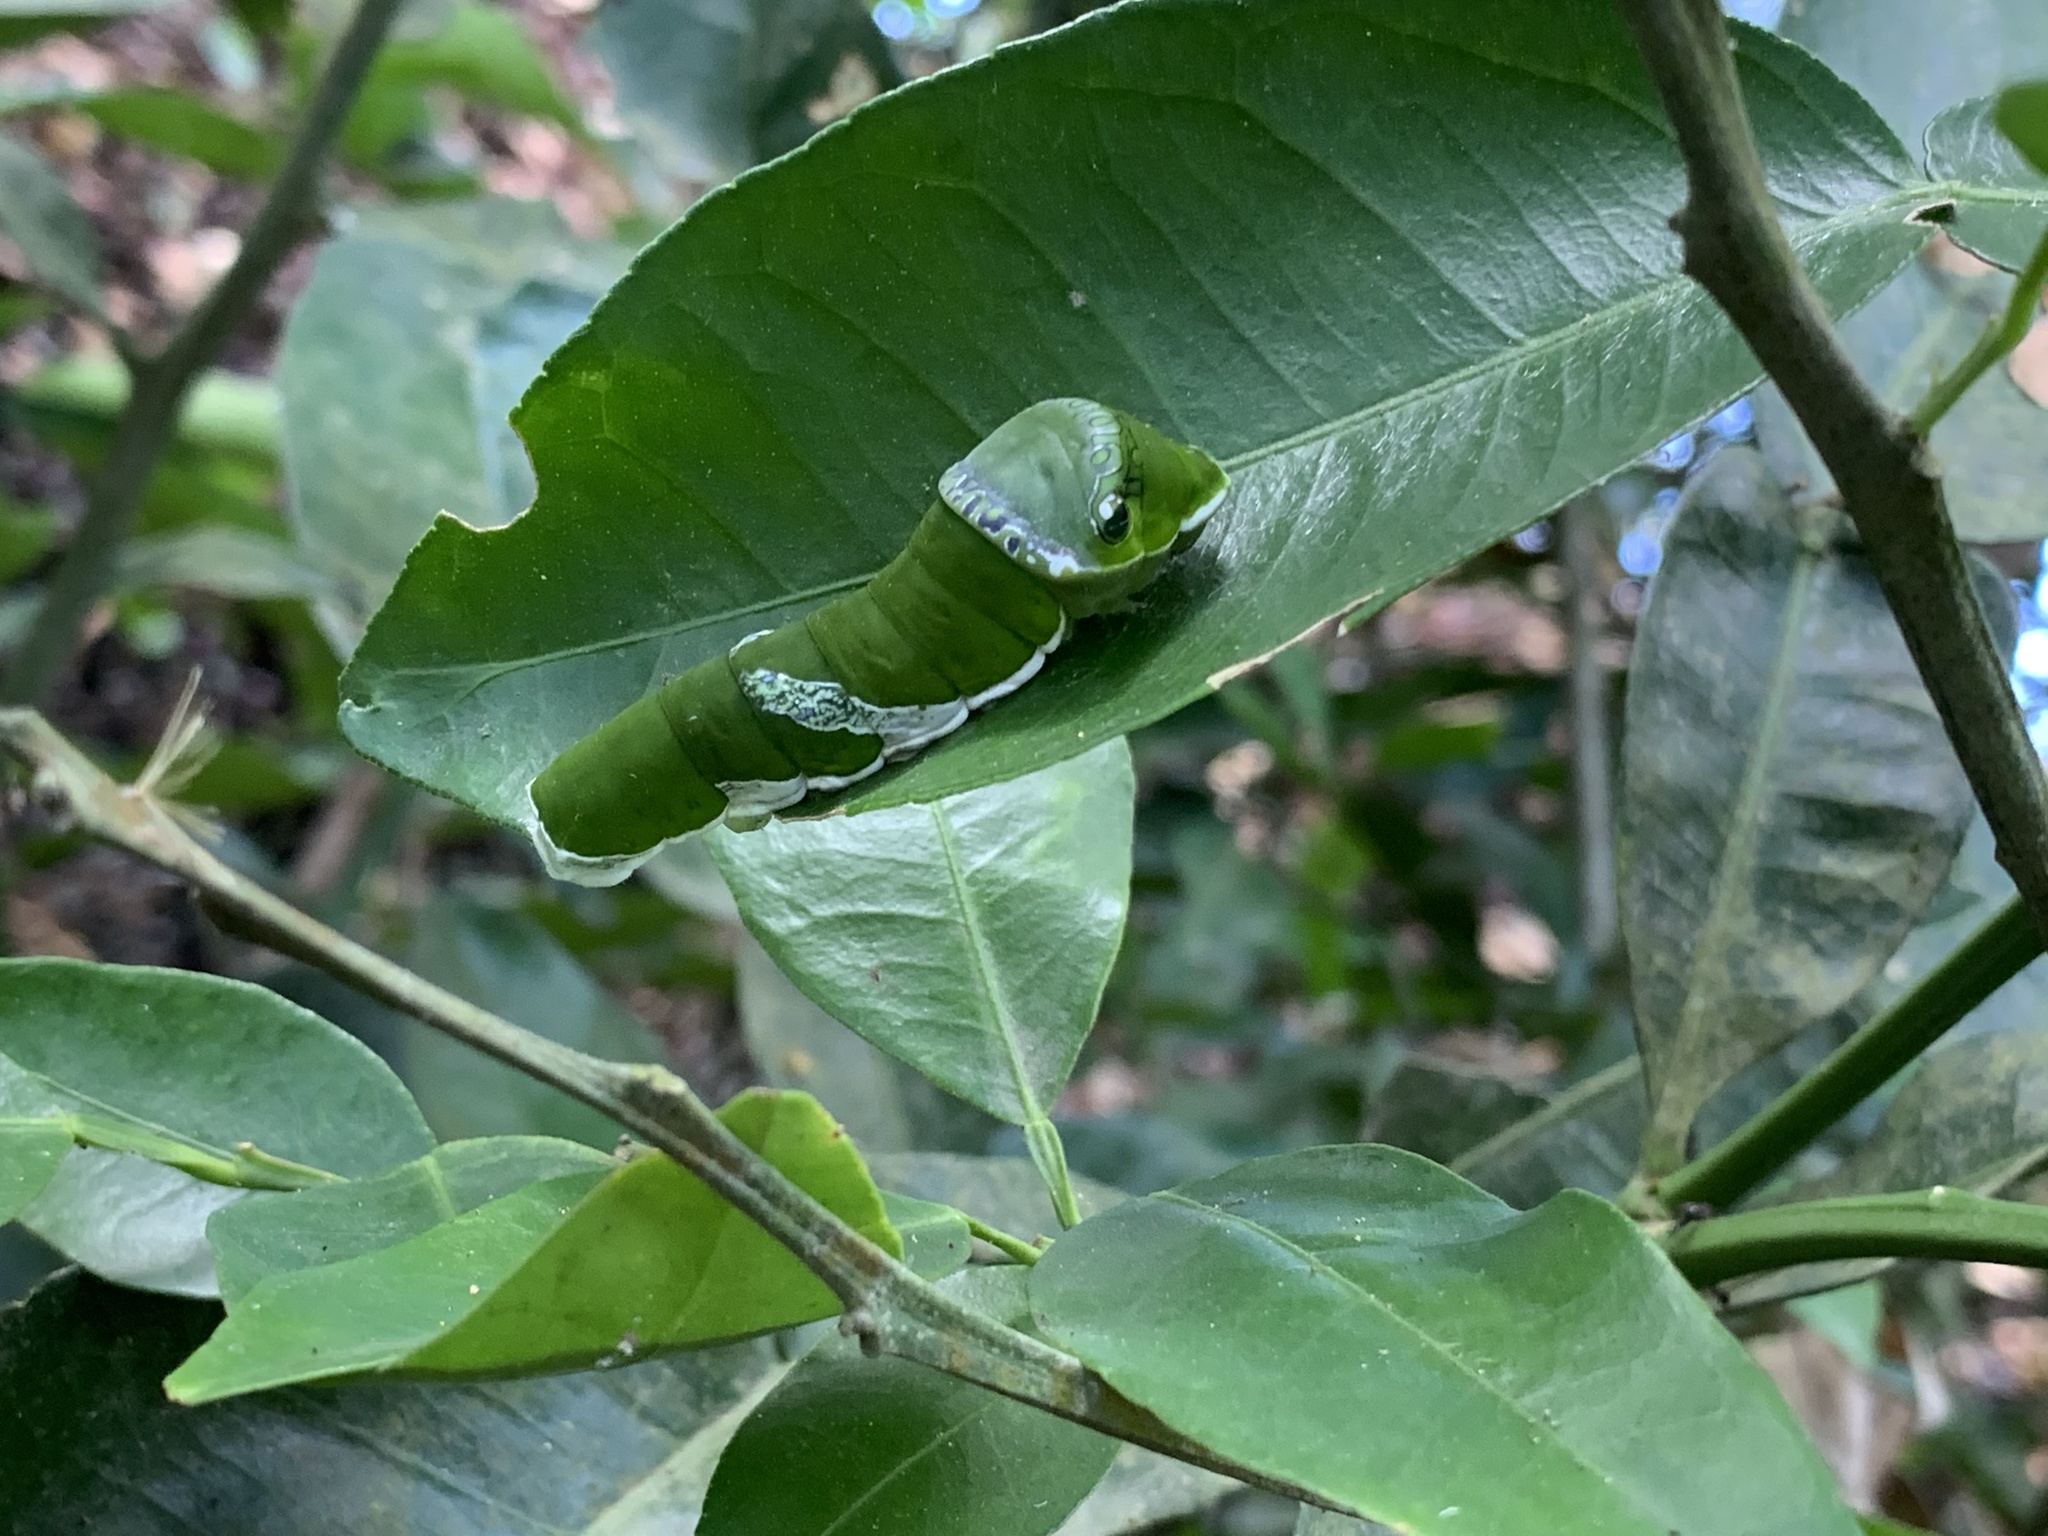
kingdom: Animalia
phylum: Arthropoda
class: Insecta
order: Lepidoptera
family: Papilionidae
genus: Papilio
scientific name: Papilio memnon
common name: Great mormon
